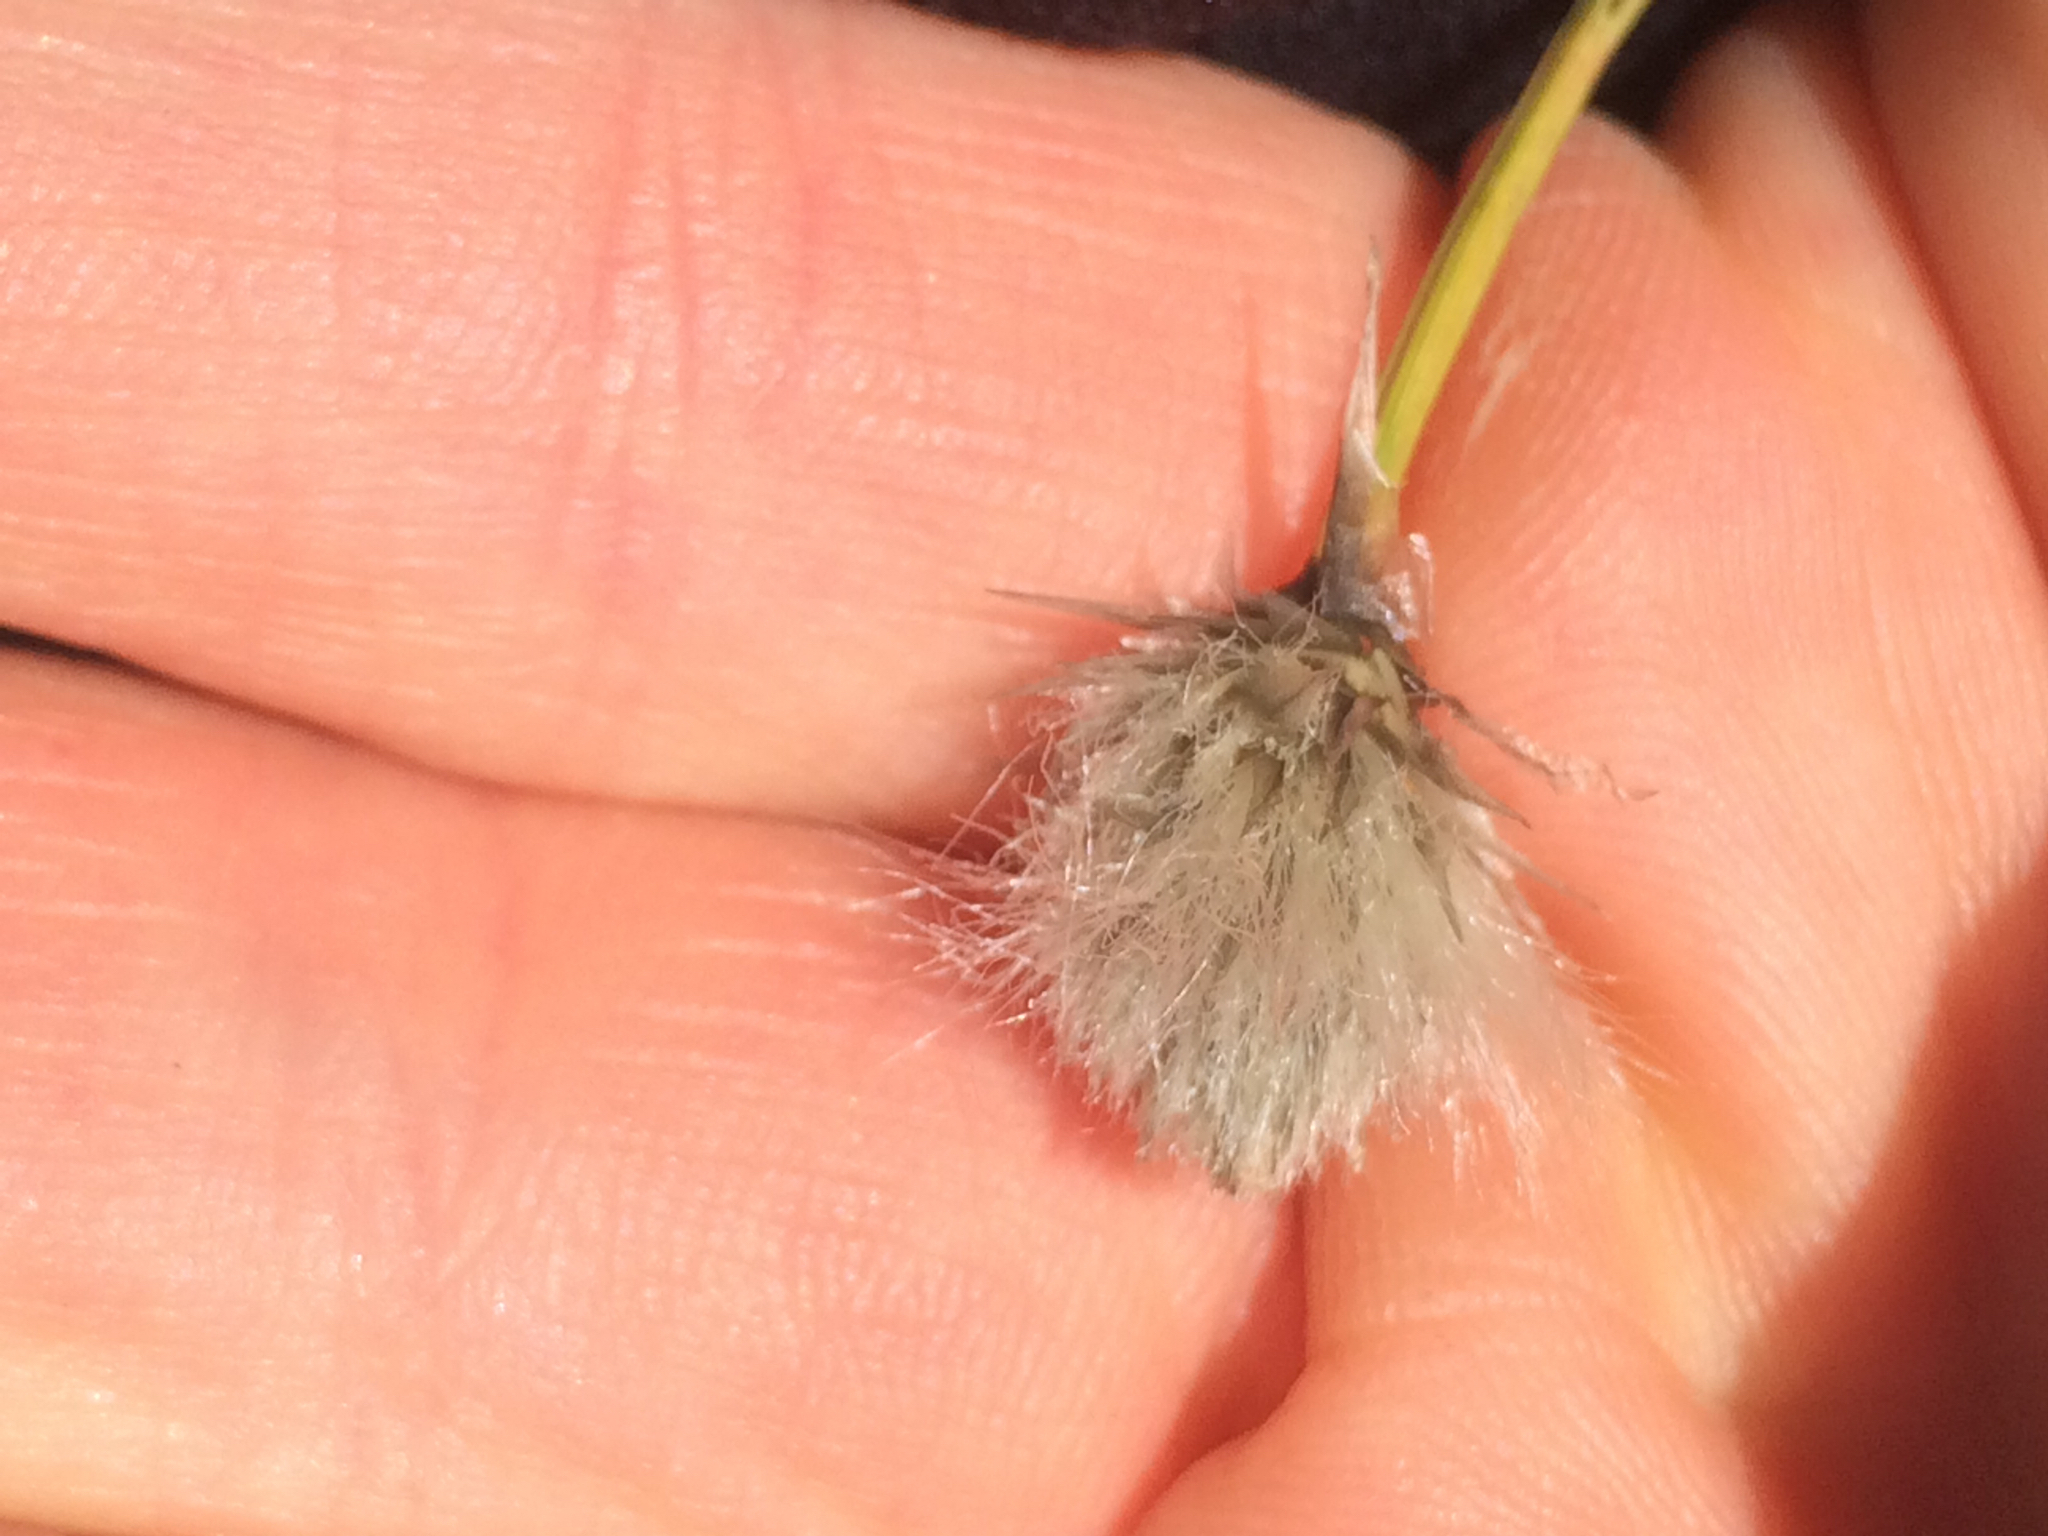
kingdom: Plantae
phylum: Tracheophyta
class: Liliopsida
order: Poales
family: Cyperaceae
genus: Eriophorum
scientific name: Eriophorum vaginatum
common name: Hare's-tail cottongrass
